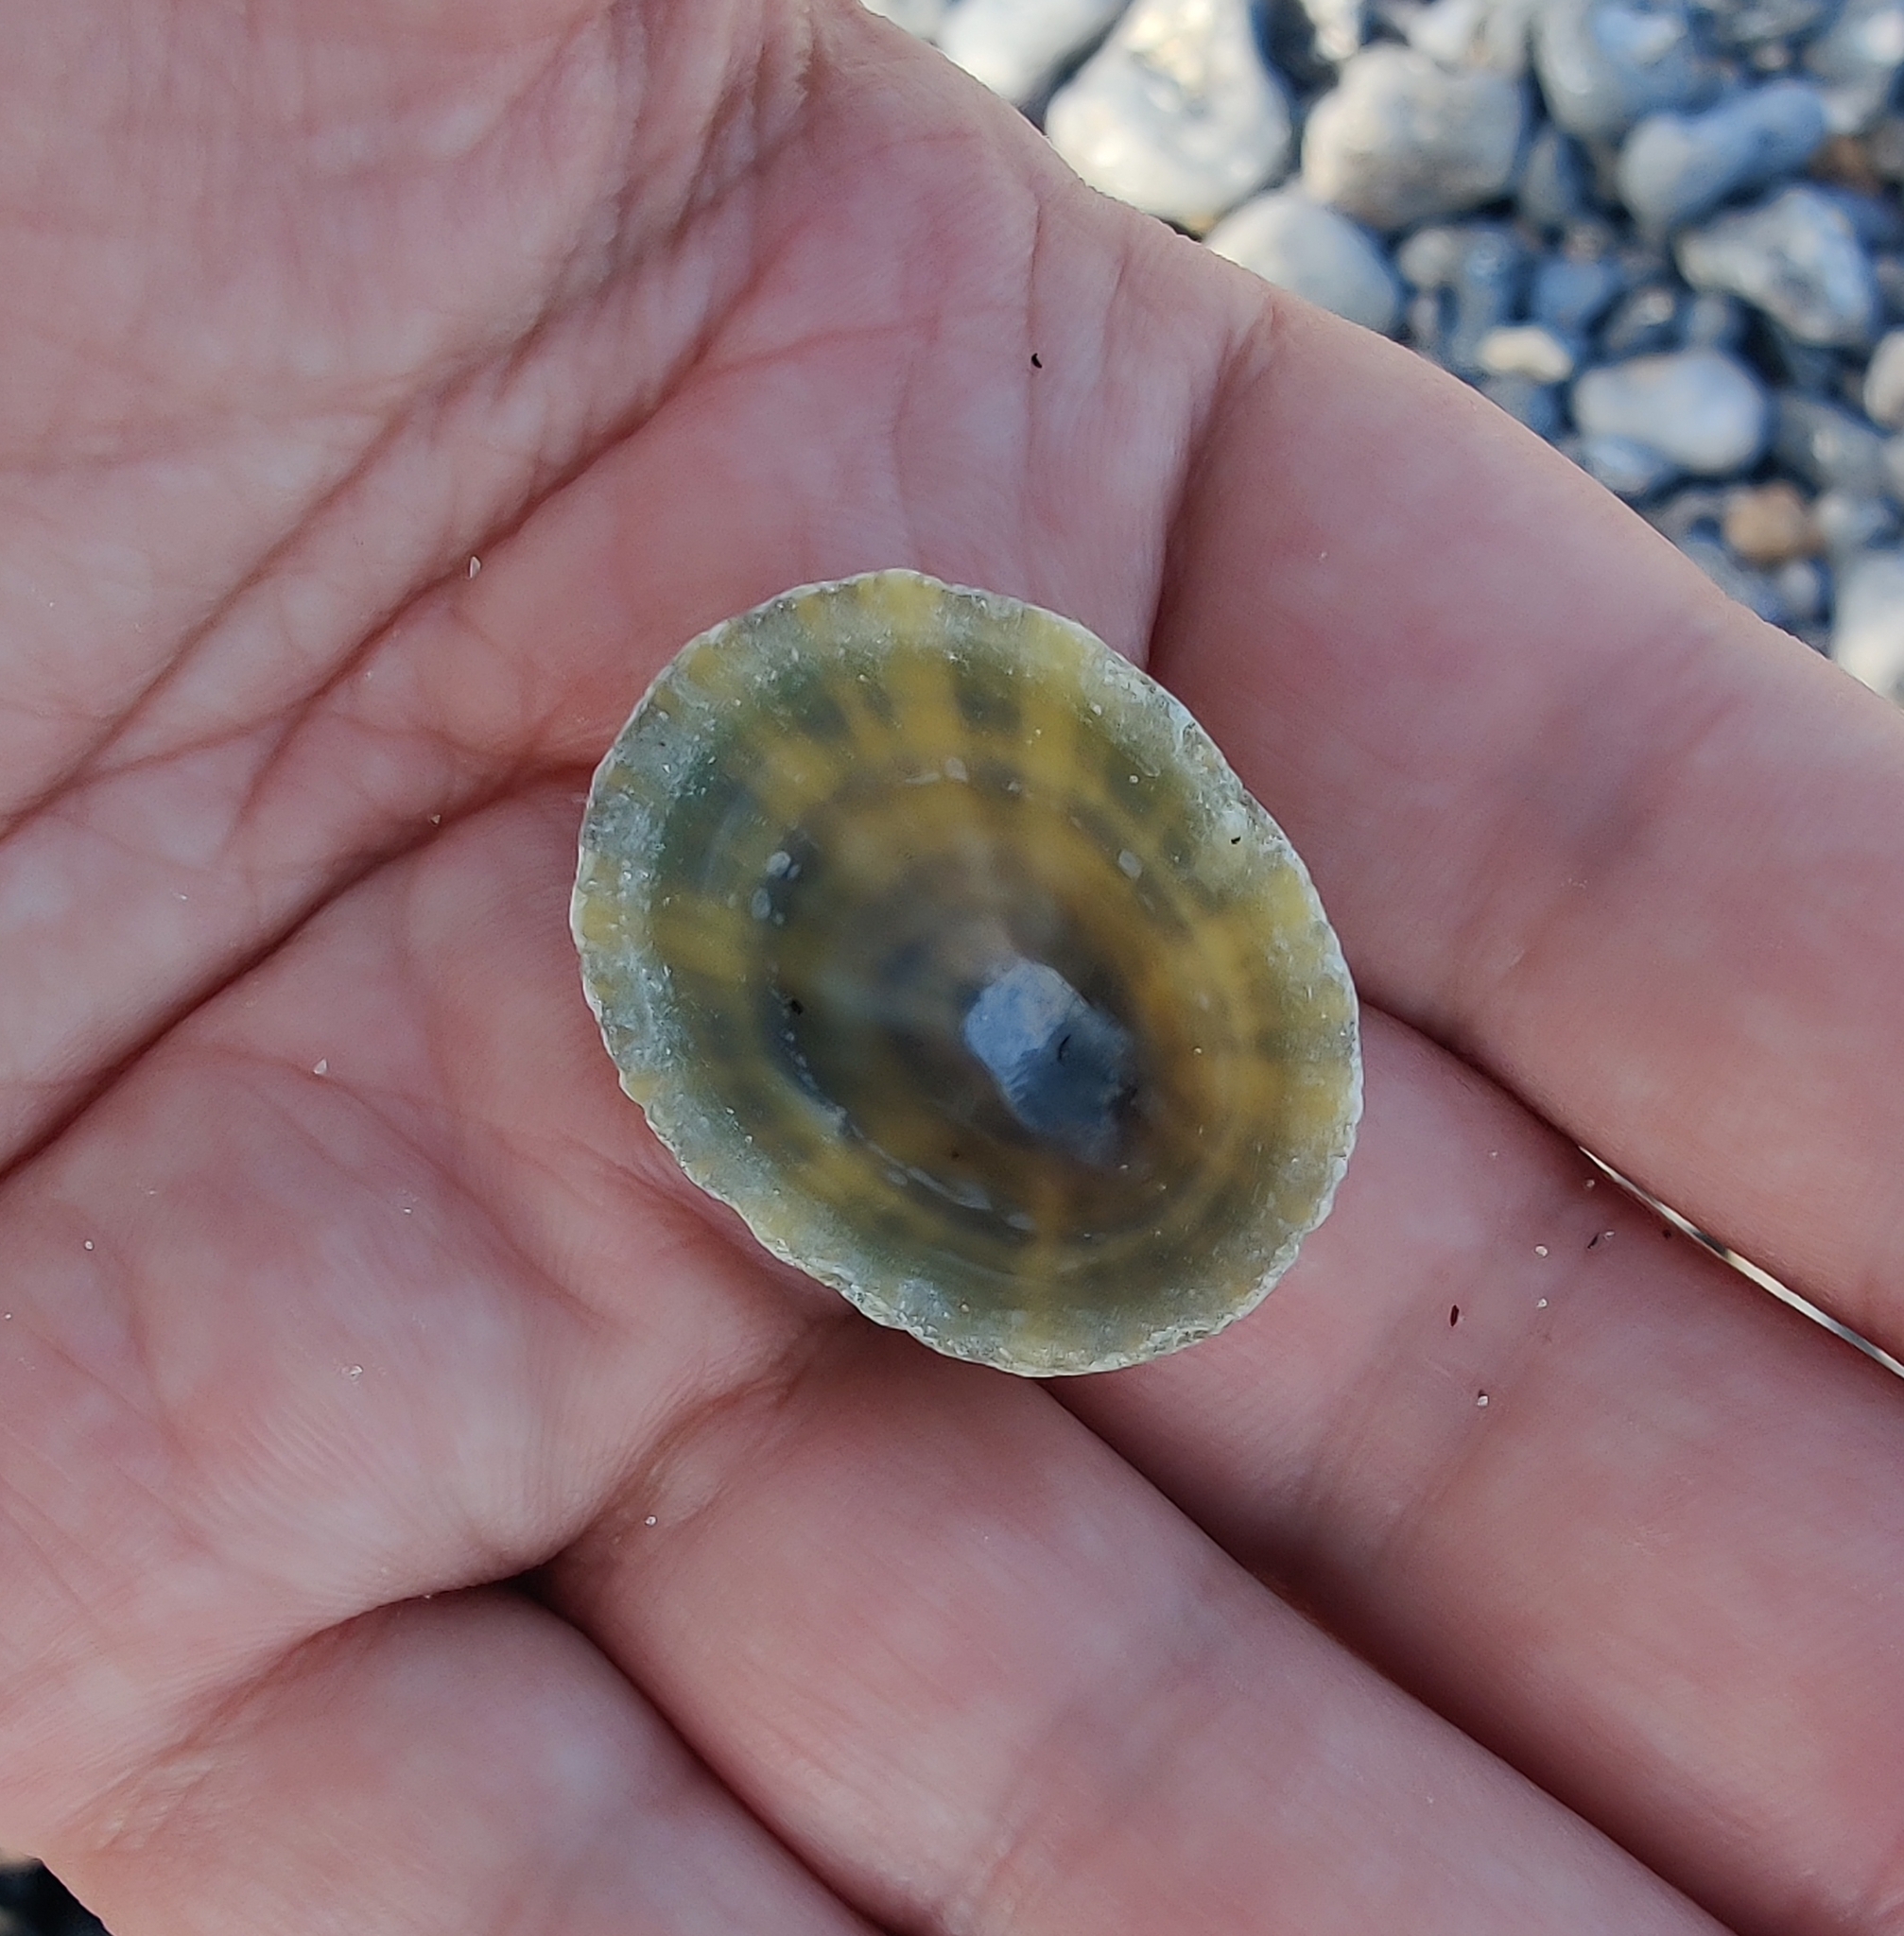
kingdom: Animalia
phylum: Mollusca
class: Gastropoda
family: Patellidae
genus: Patella
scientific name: Patella vulgata
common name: Common limpet
